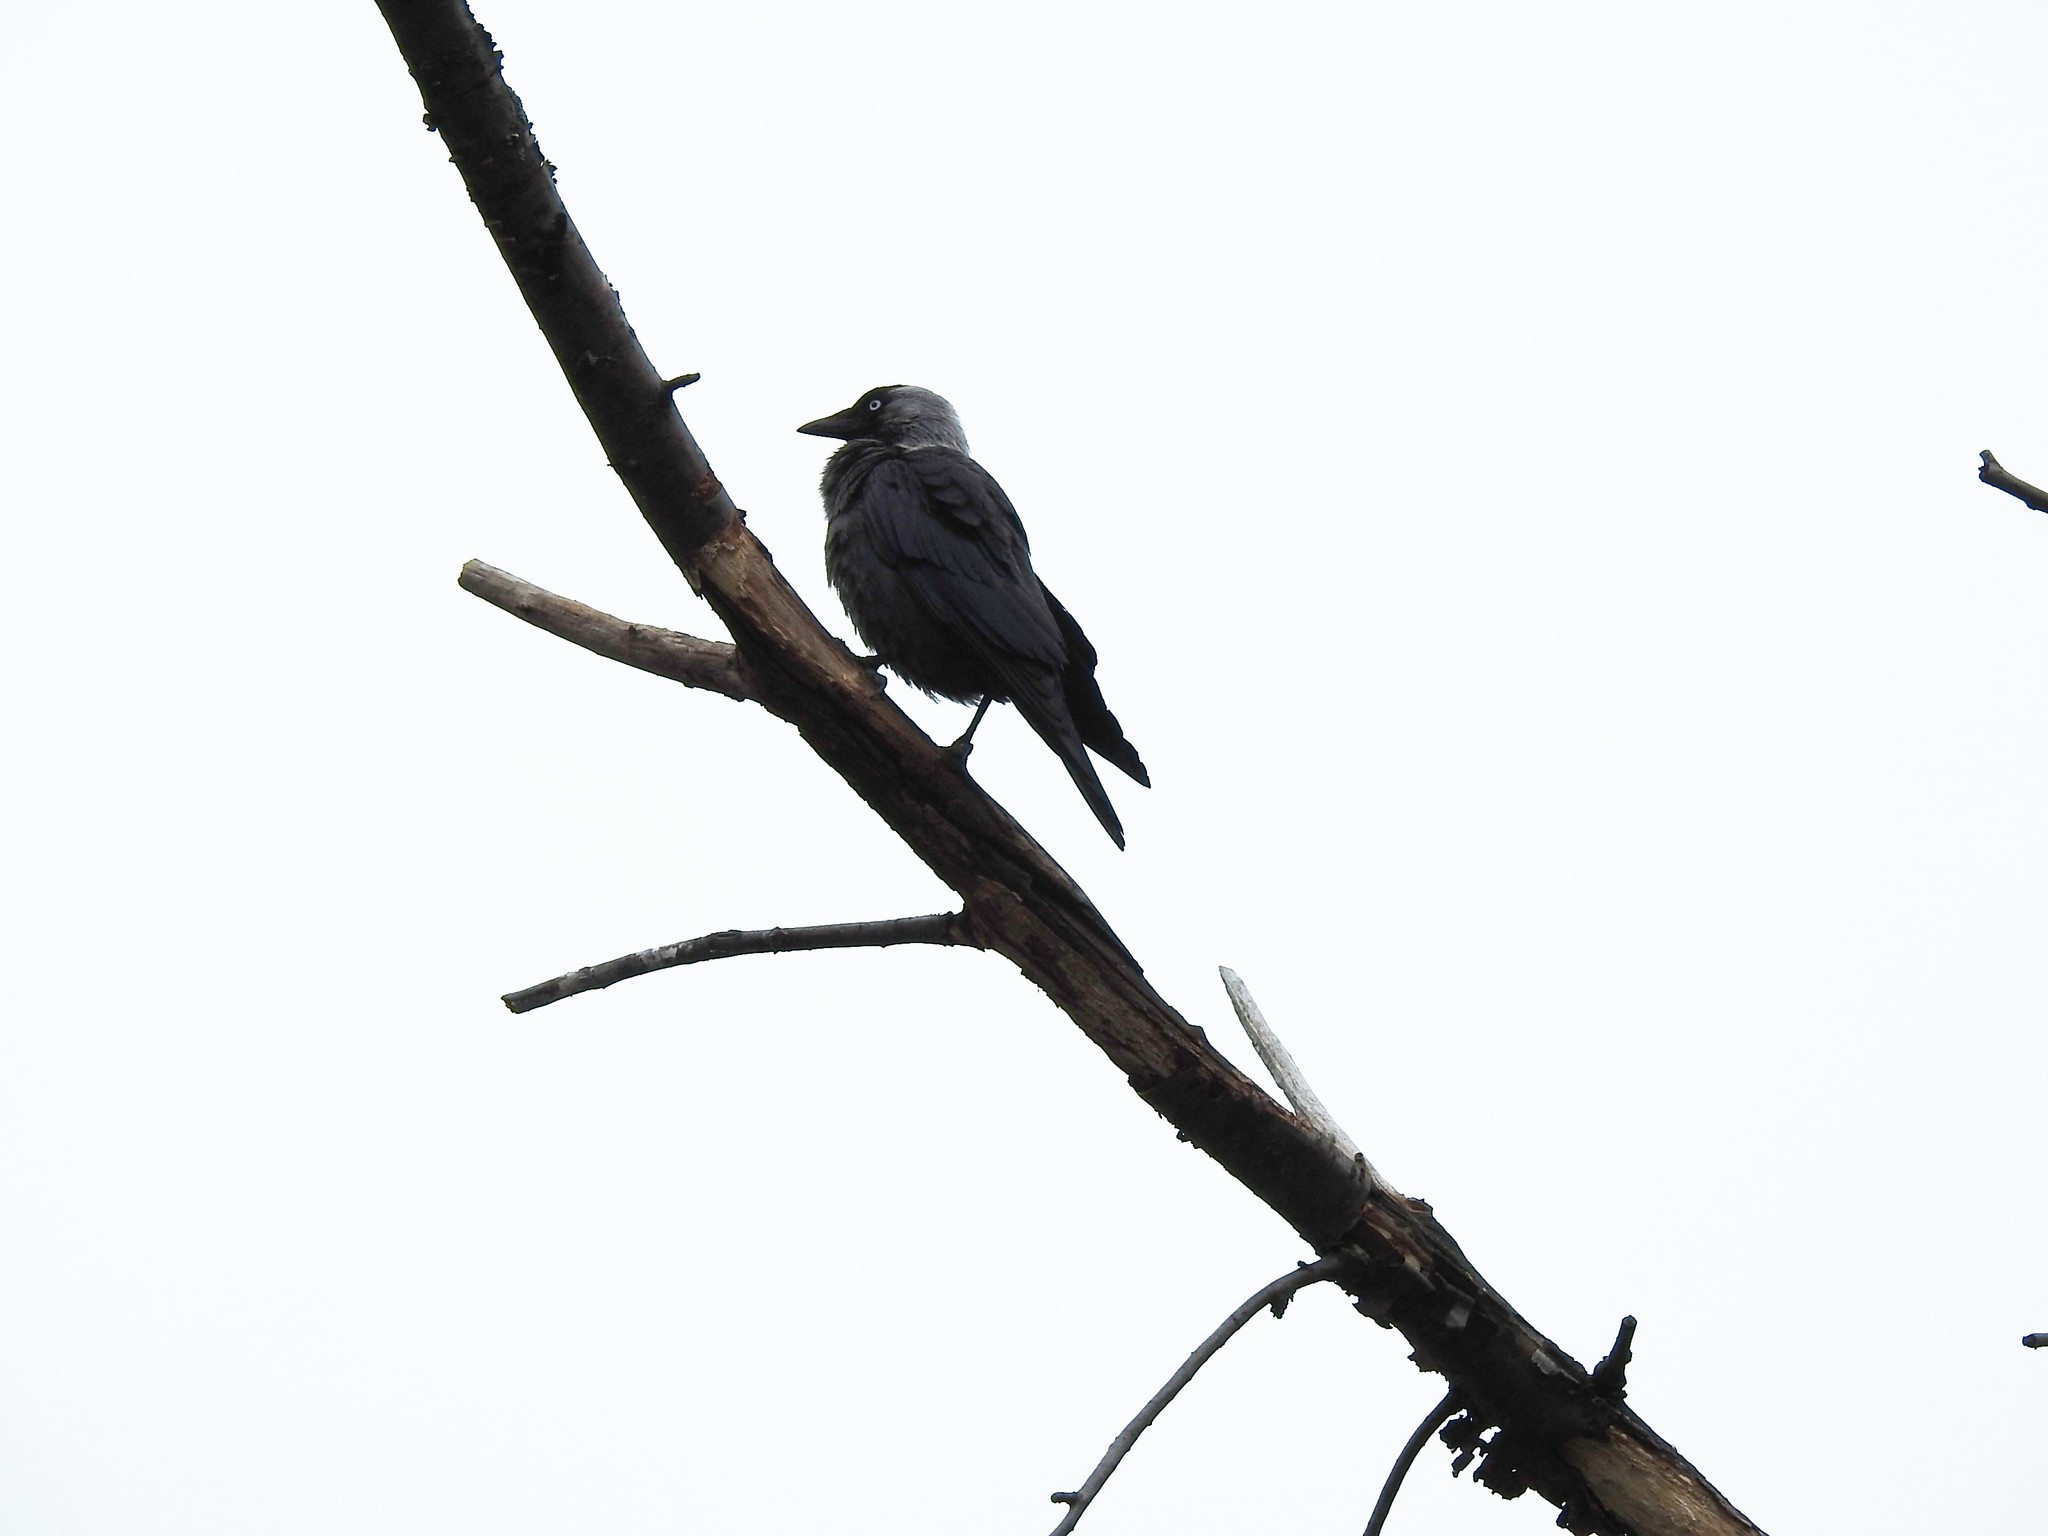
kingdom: Animalia
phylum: Chordata
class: Aves
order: Passeriformes
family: Corvidae
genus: Coloeus
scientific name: Coloeus monedula
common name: Western jackdaw
